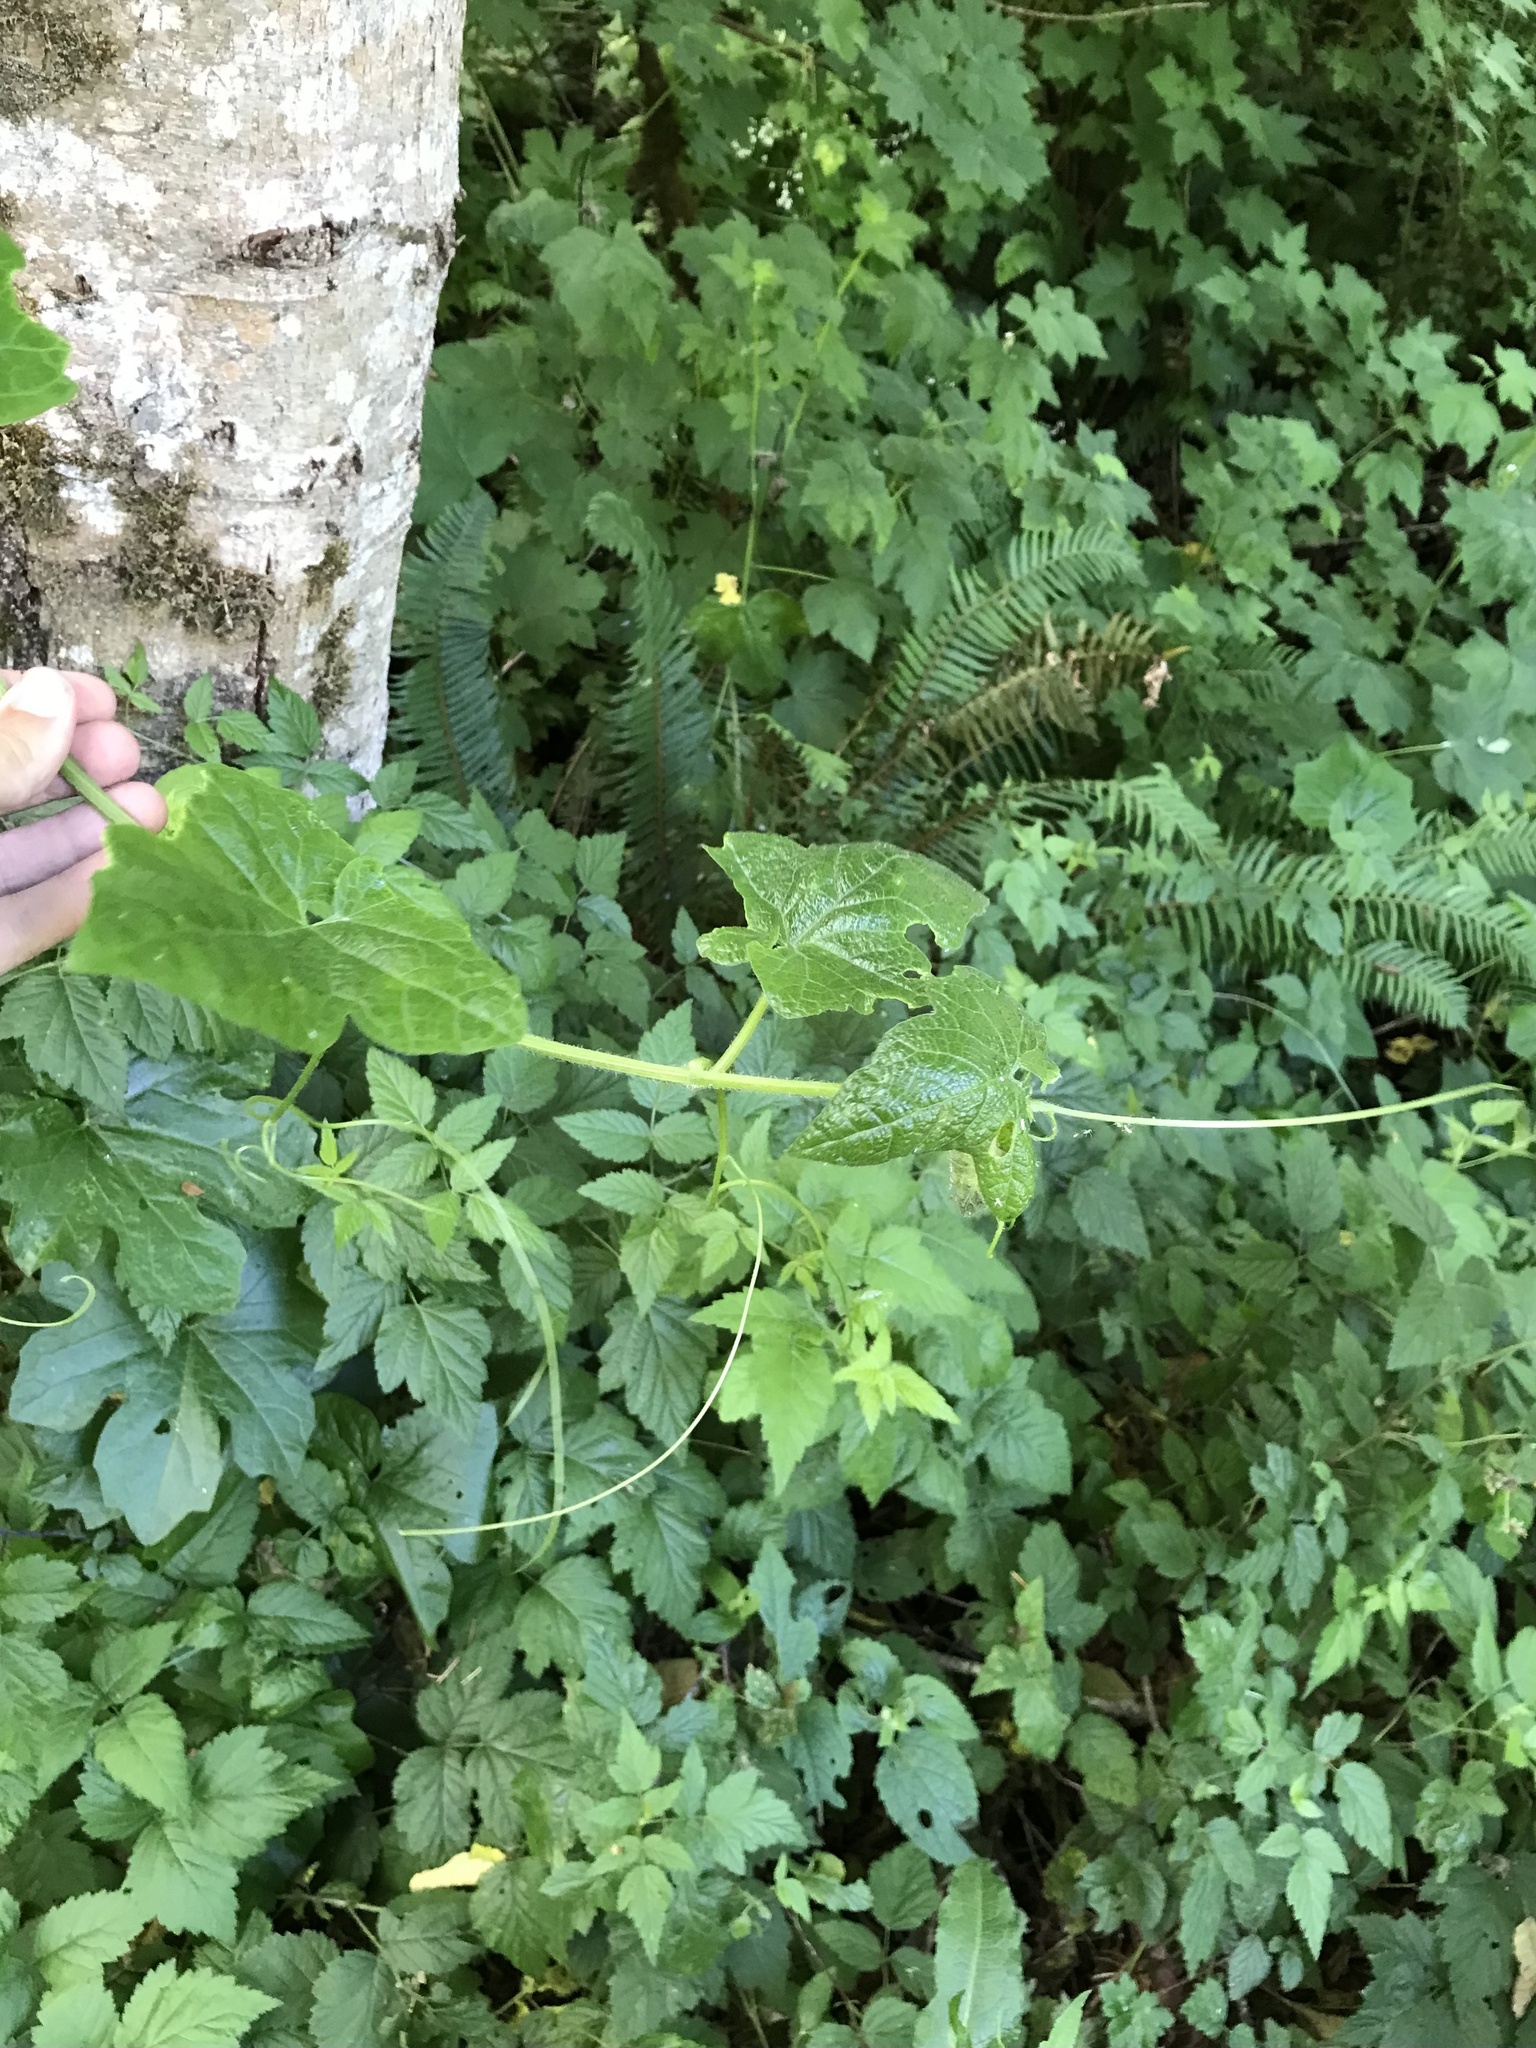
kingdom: Plantae
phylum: Tracheophyta
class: Magnoliopsida
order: Cucurbitales
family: Cucurbitaceae
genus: Marah
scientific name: Marah oregana
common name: Coastal manroot
